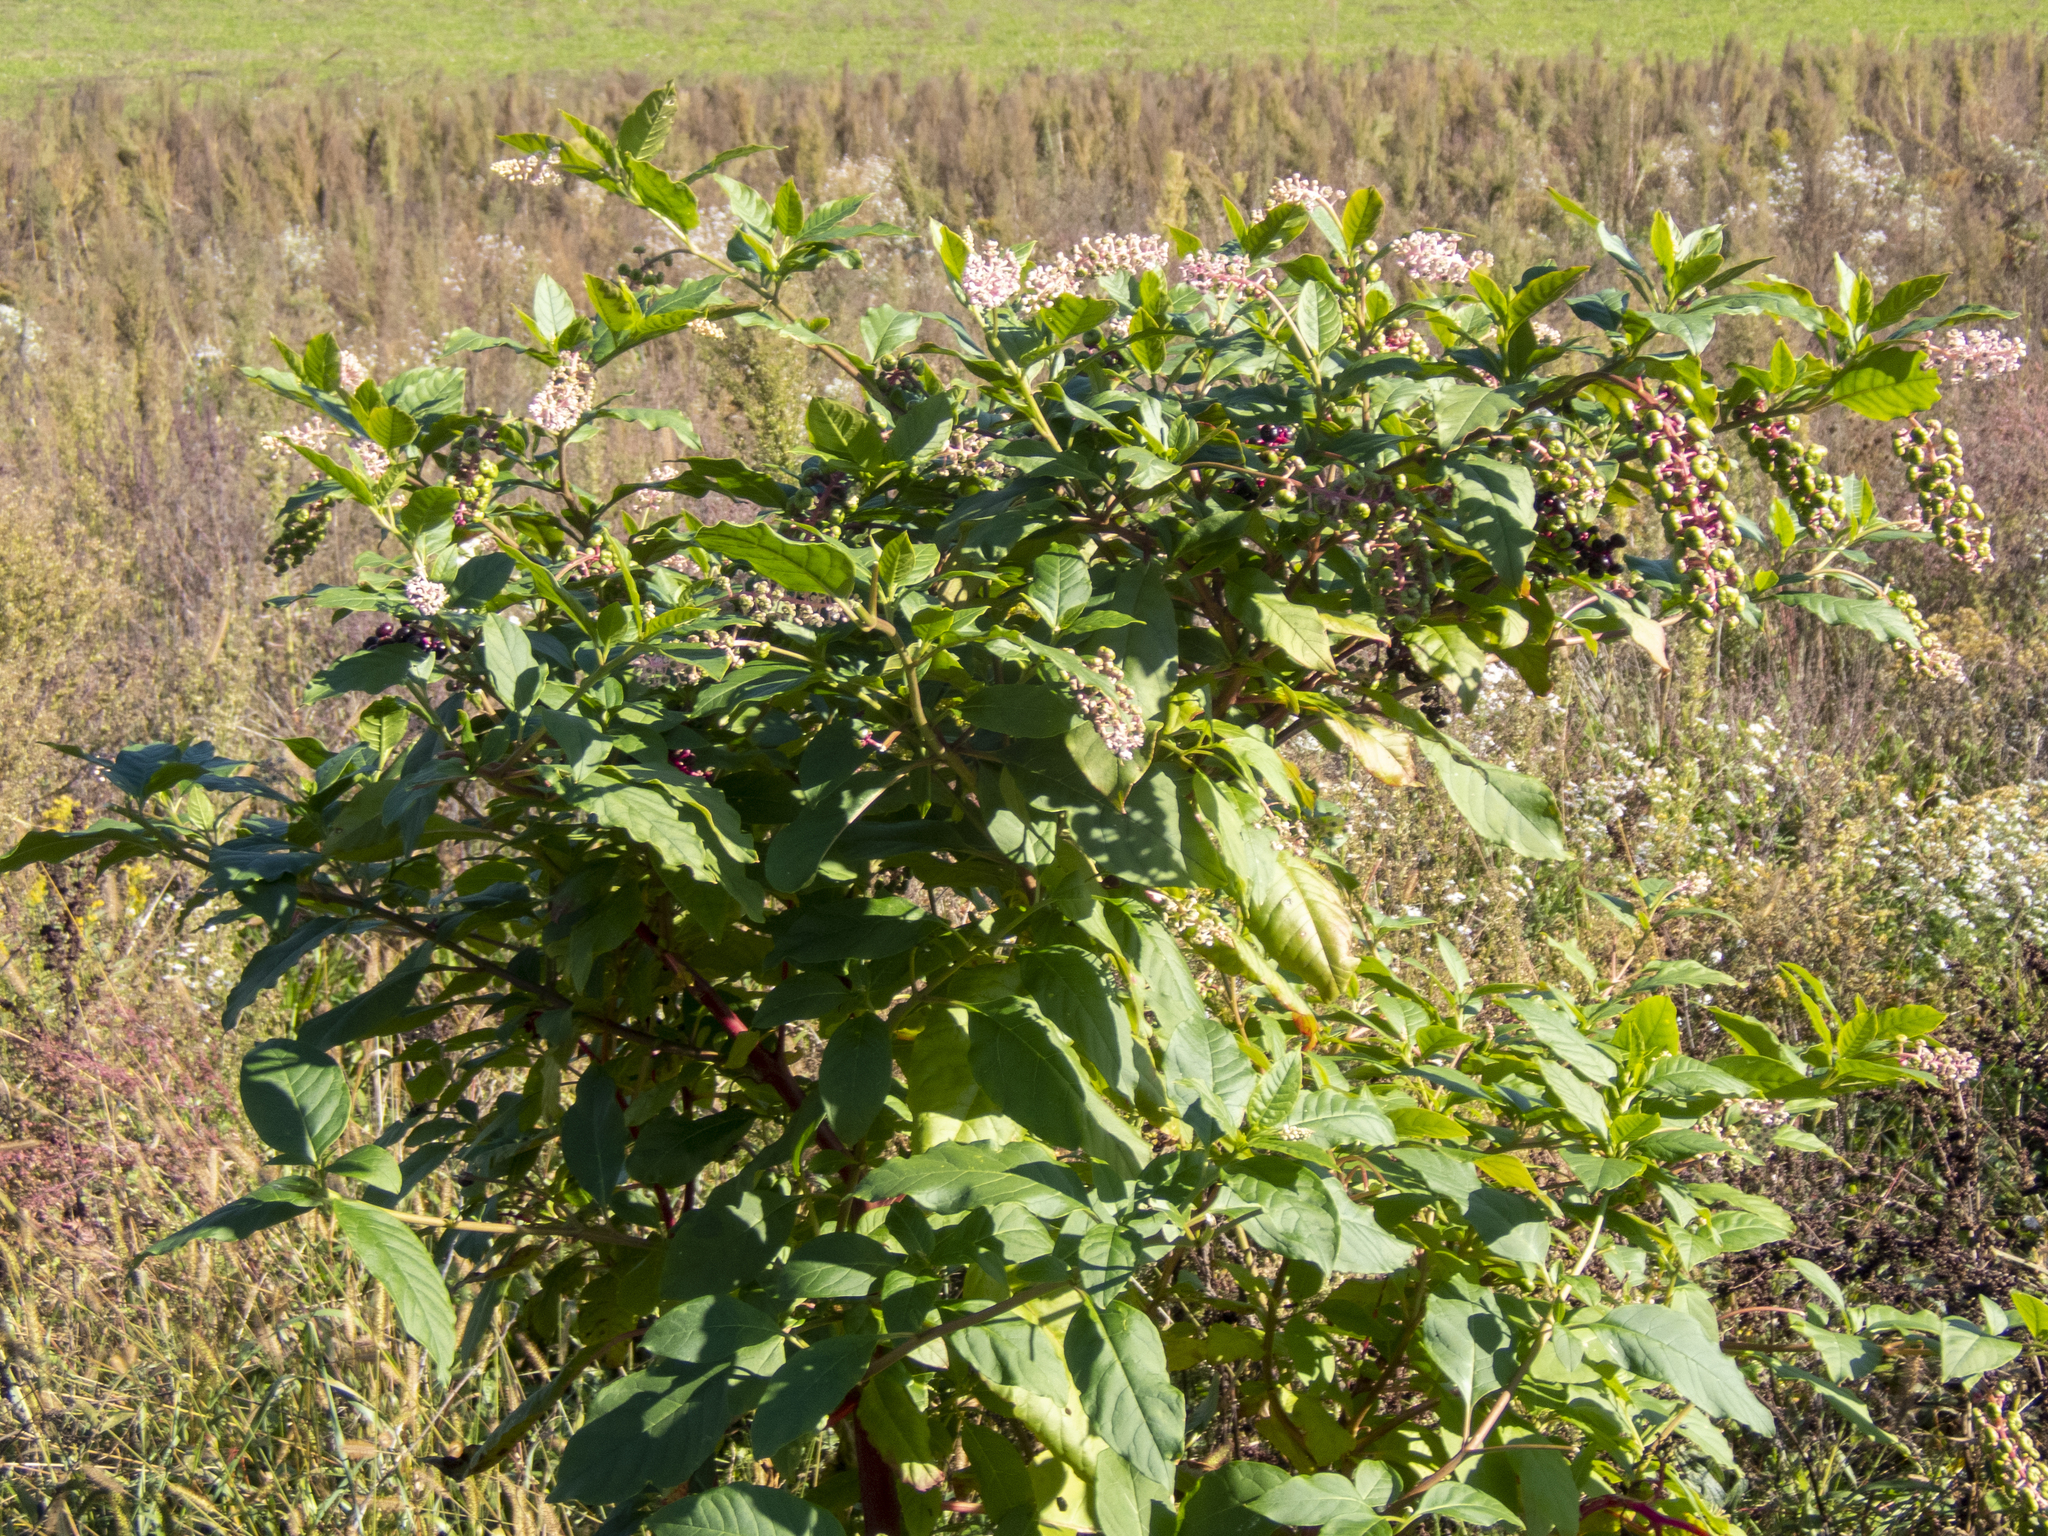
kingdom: Plantae
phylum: Tracheophyta
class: Magnoliopsida
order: Caryophyllales
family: Phytolaccaceae
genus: Phytolacca
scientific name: Phytolacca americana
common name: American pokeweed
